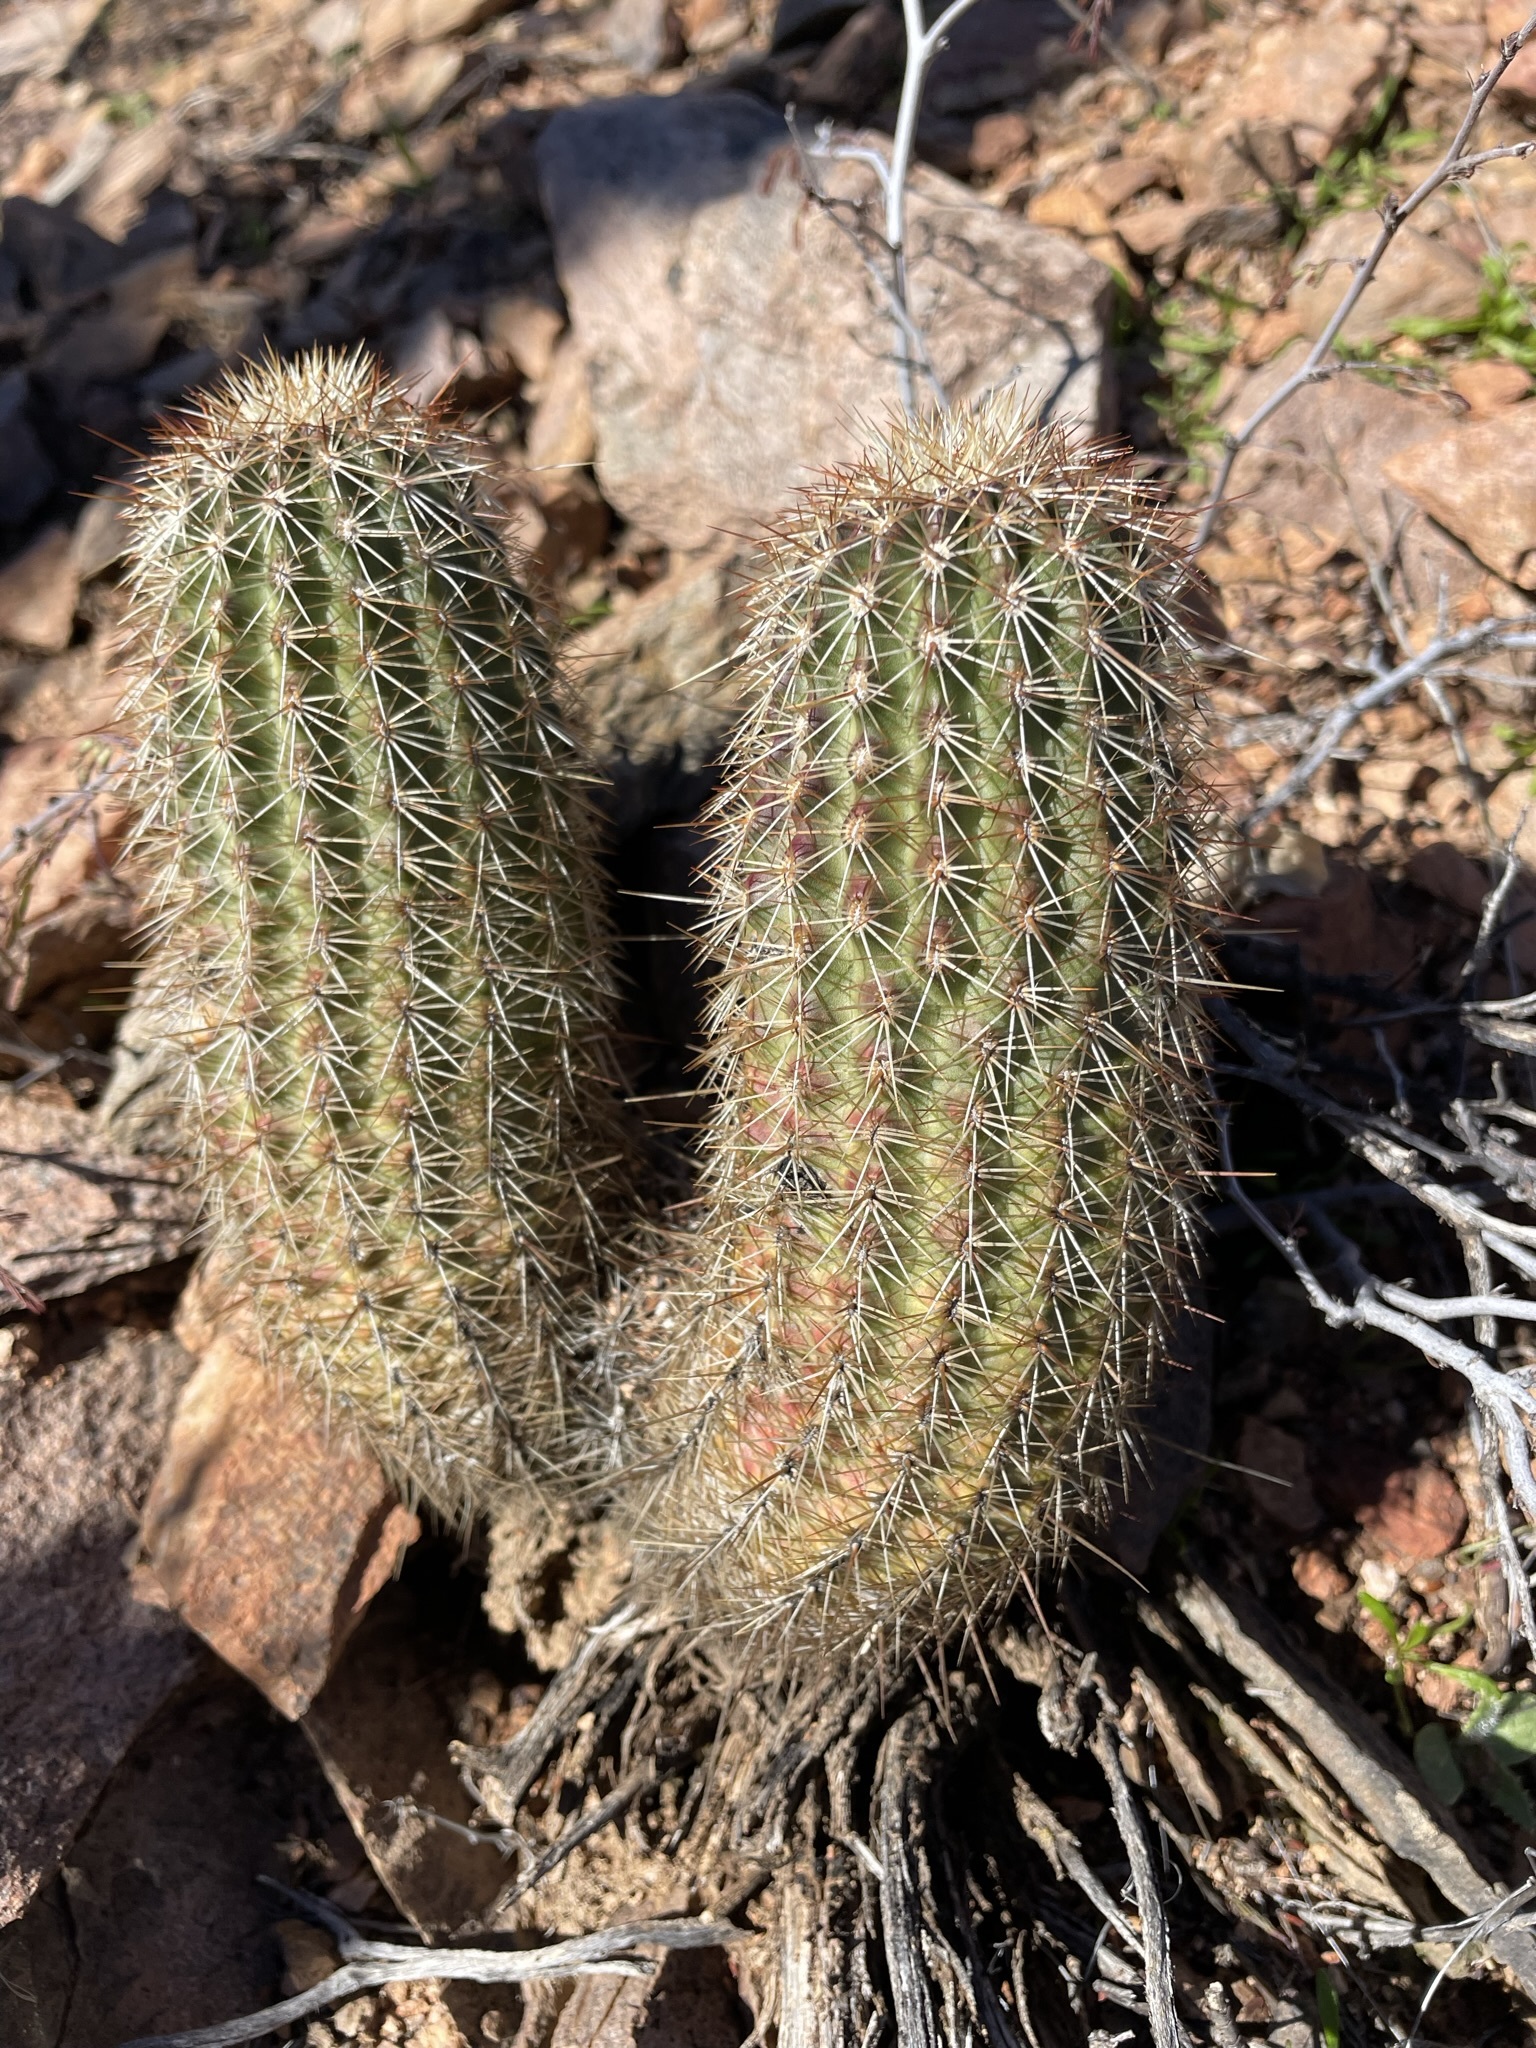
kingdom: Plantae
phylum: Tracheophyta
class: Magnoliopsida
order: Caryophyllales
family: Cactaceae
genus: Echinocereus
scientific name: Echinocereus bonkerae
